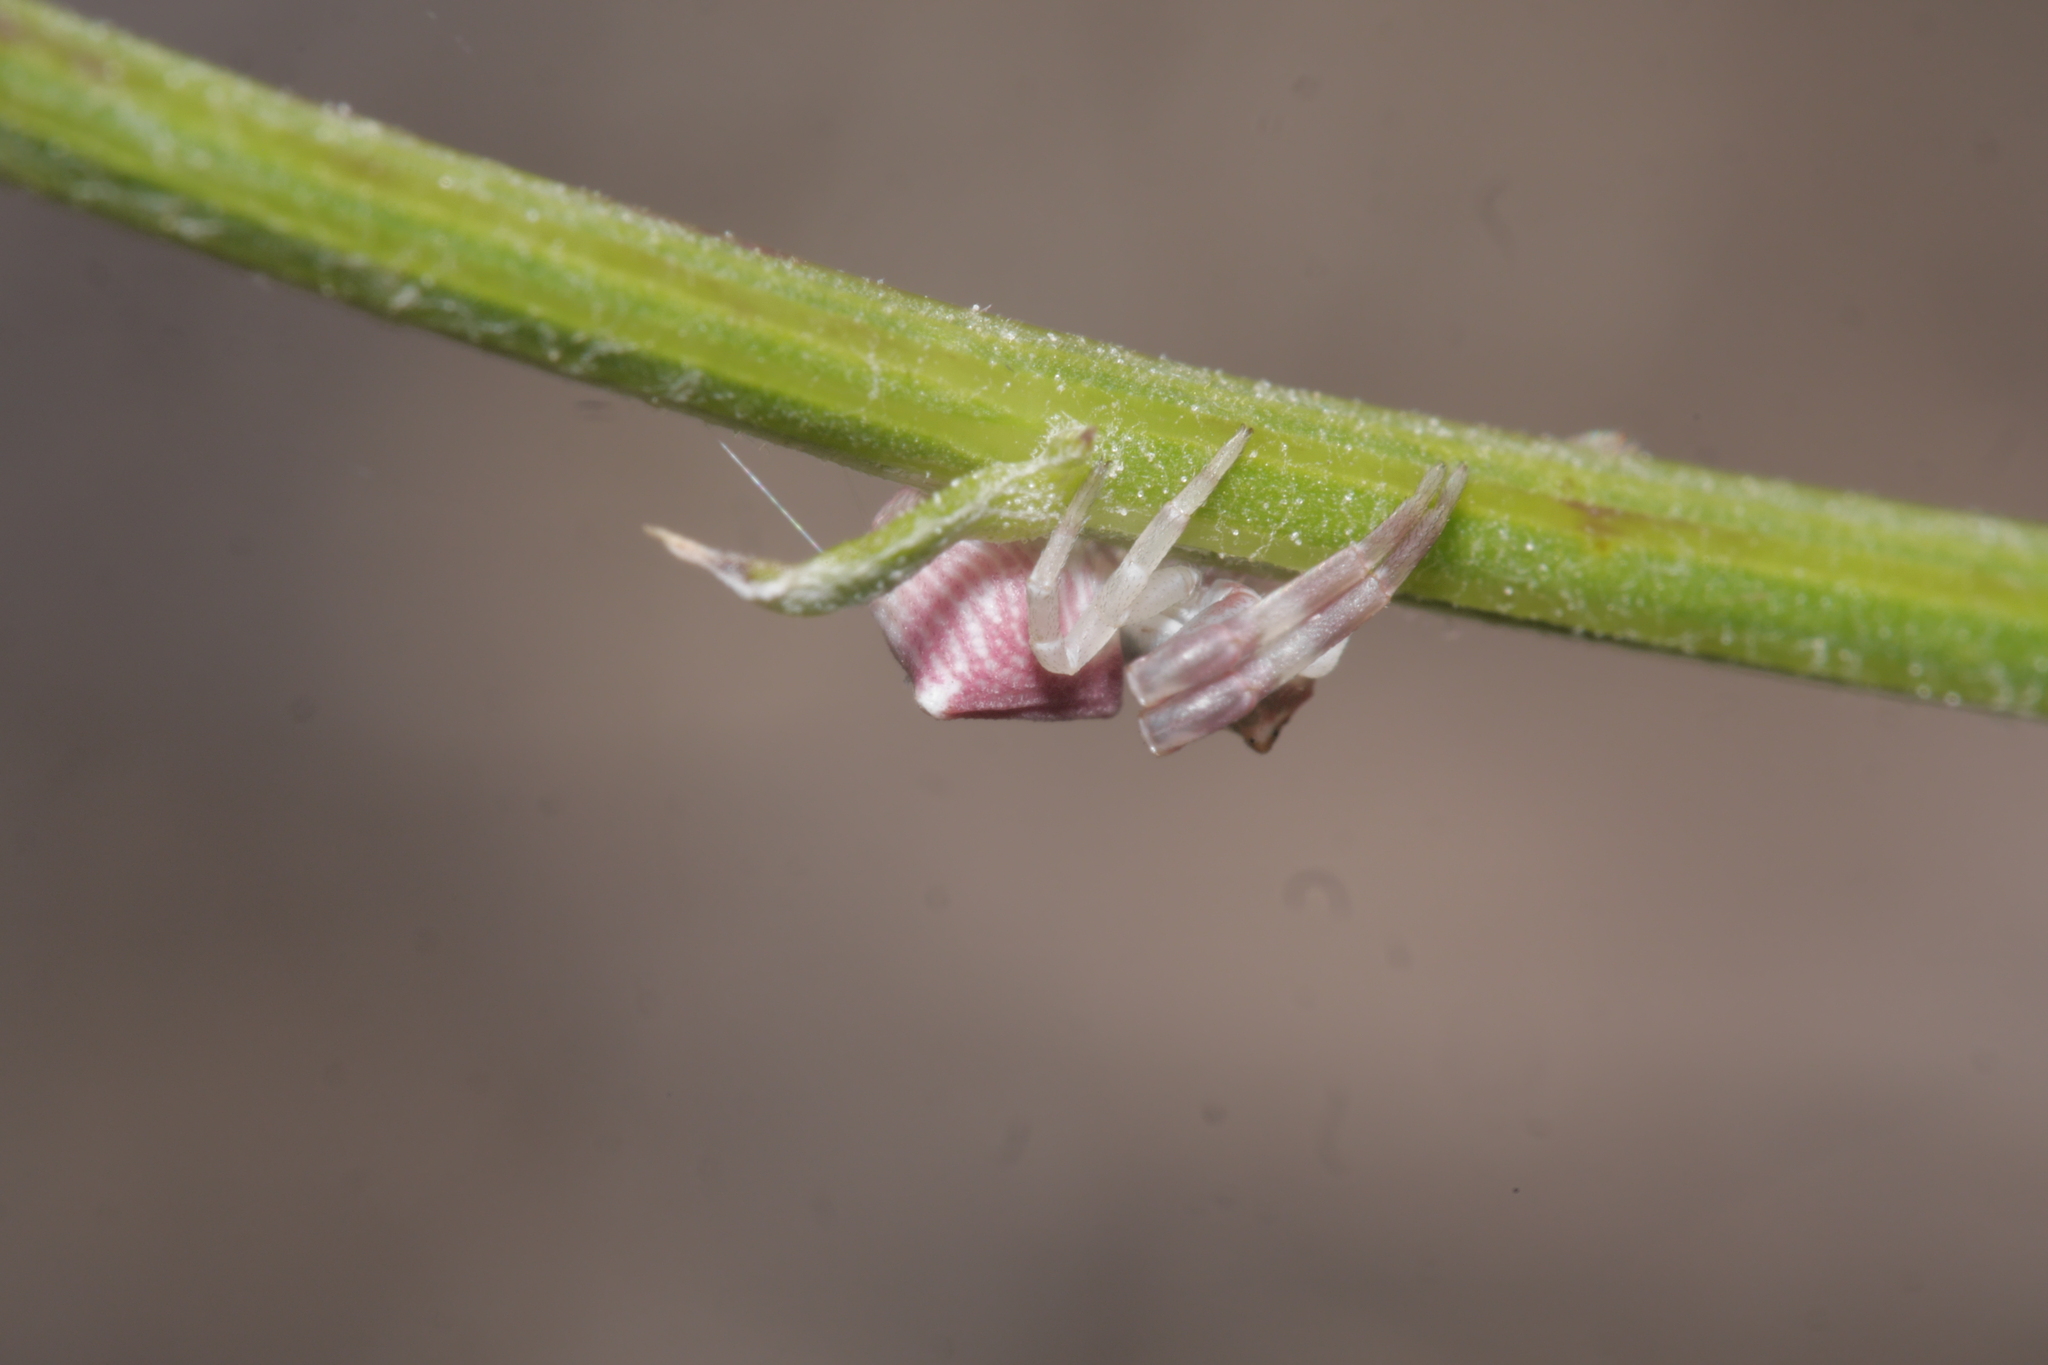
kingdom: Animalia
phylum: Arthropoda
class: Arachnida
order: Araneae
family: Thomisidae
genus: Thomisus
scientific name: Thomisus onustus
